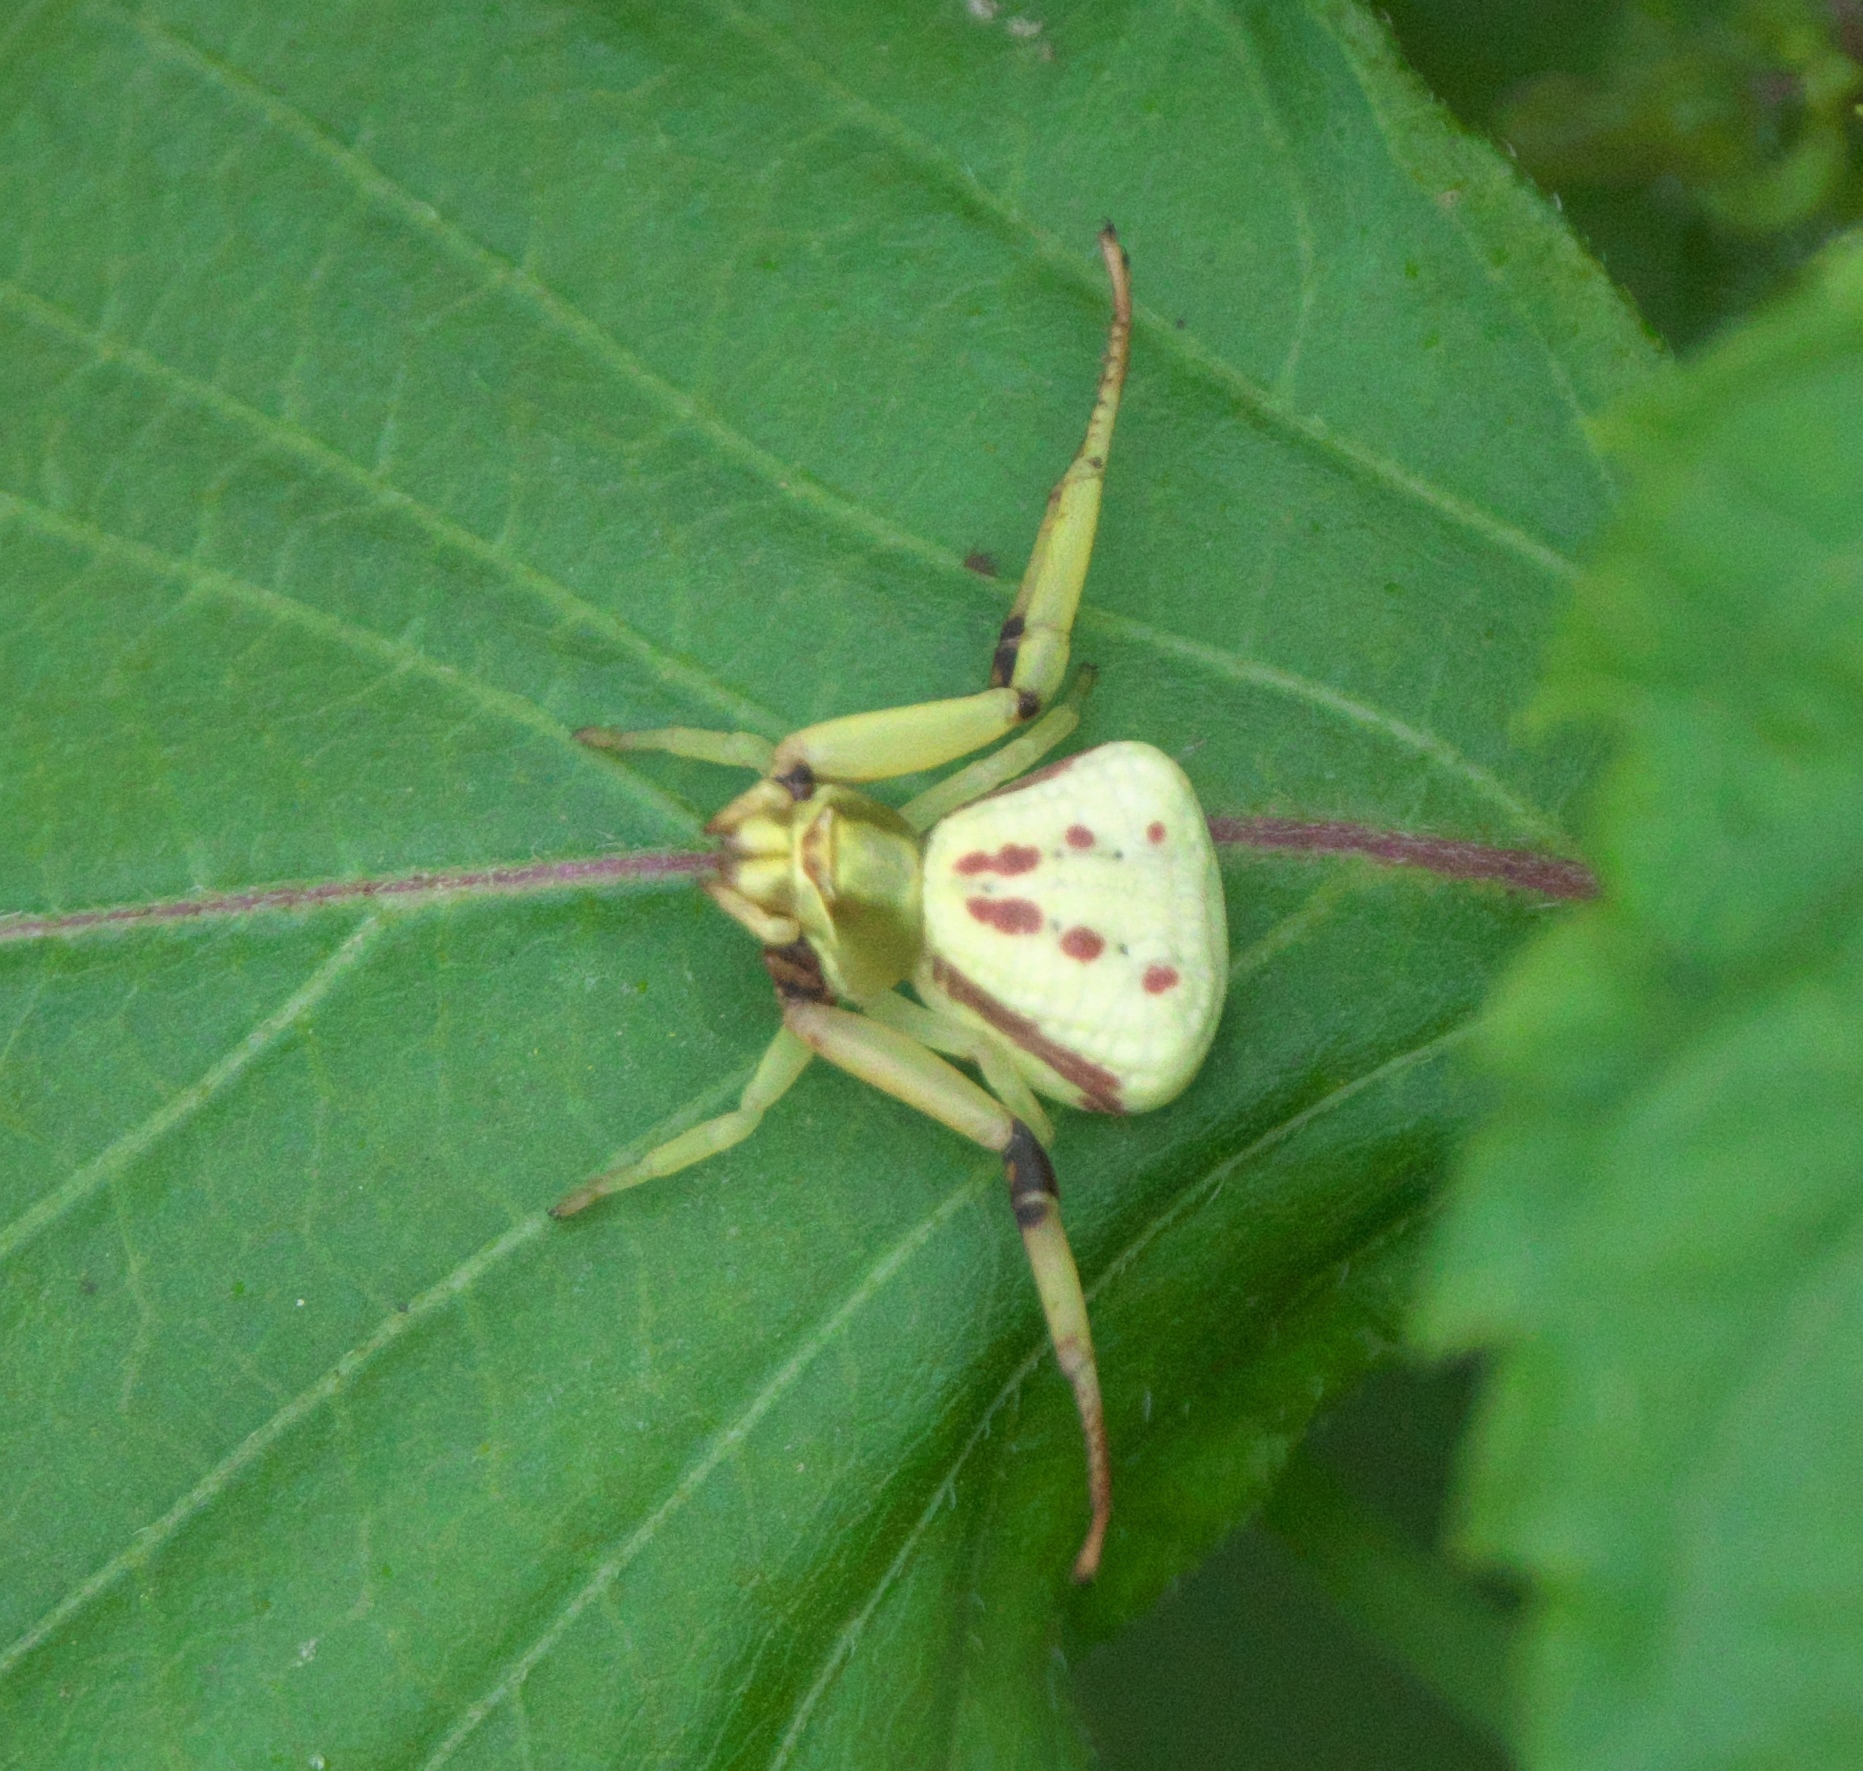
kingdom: Animalia
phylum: Arthropoda
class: Arachnida
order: Araneae
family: Thomisidae
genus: Misumenoides
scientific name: Misumenoides formosipes
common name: White-banded crab spider
